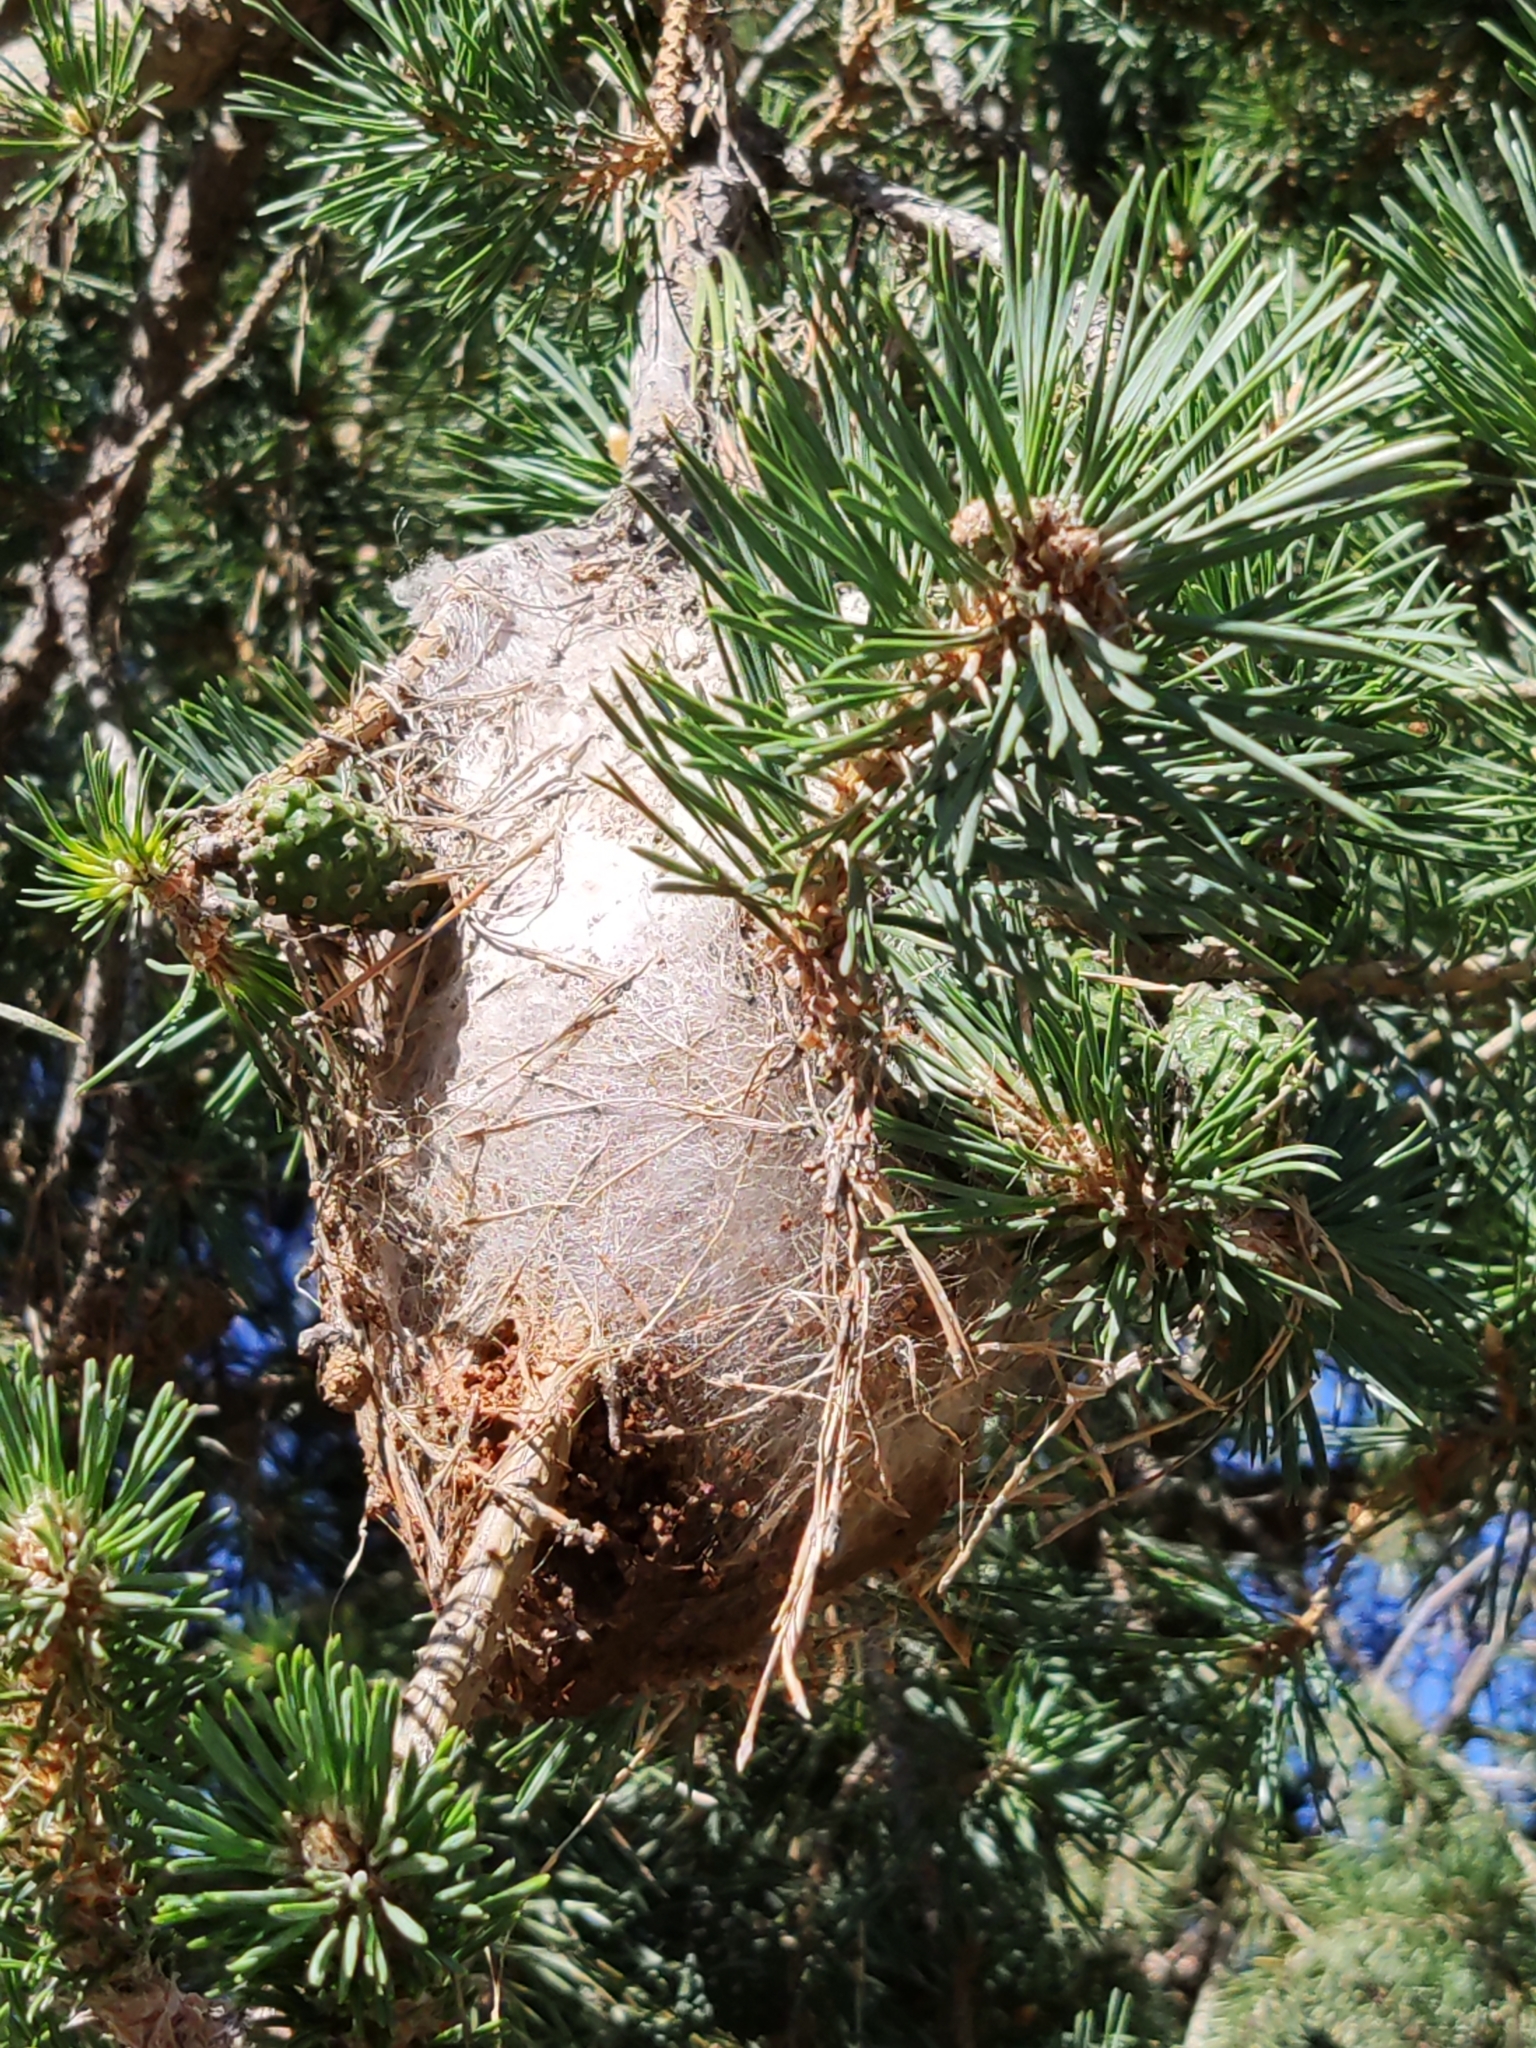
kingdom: Animalia
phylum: Arthropoda
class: Insecta
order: Lepidoptera
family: Notodontidae
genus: Thaumetopoea
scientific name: Thaumetopoea pityocampa
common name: Pine processionary
